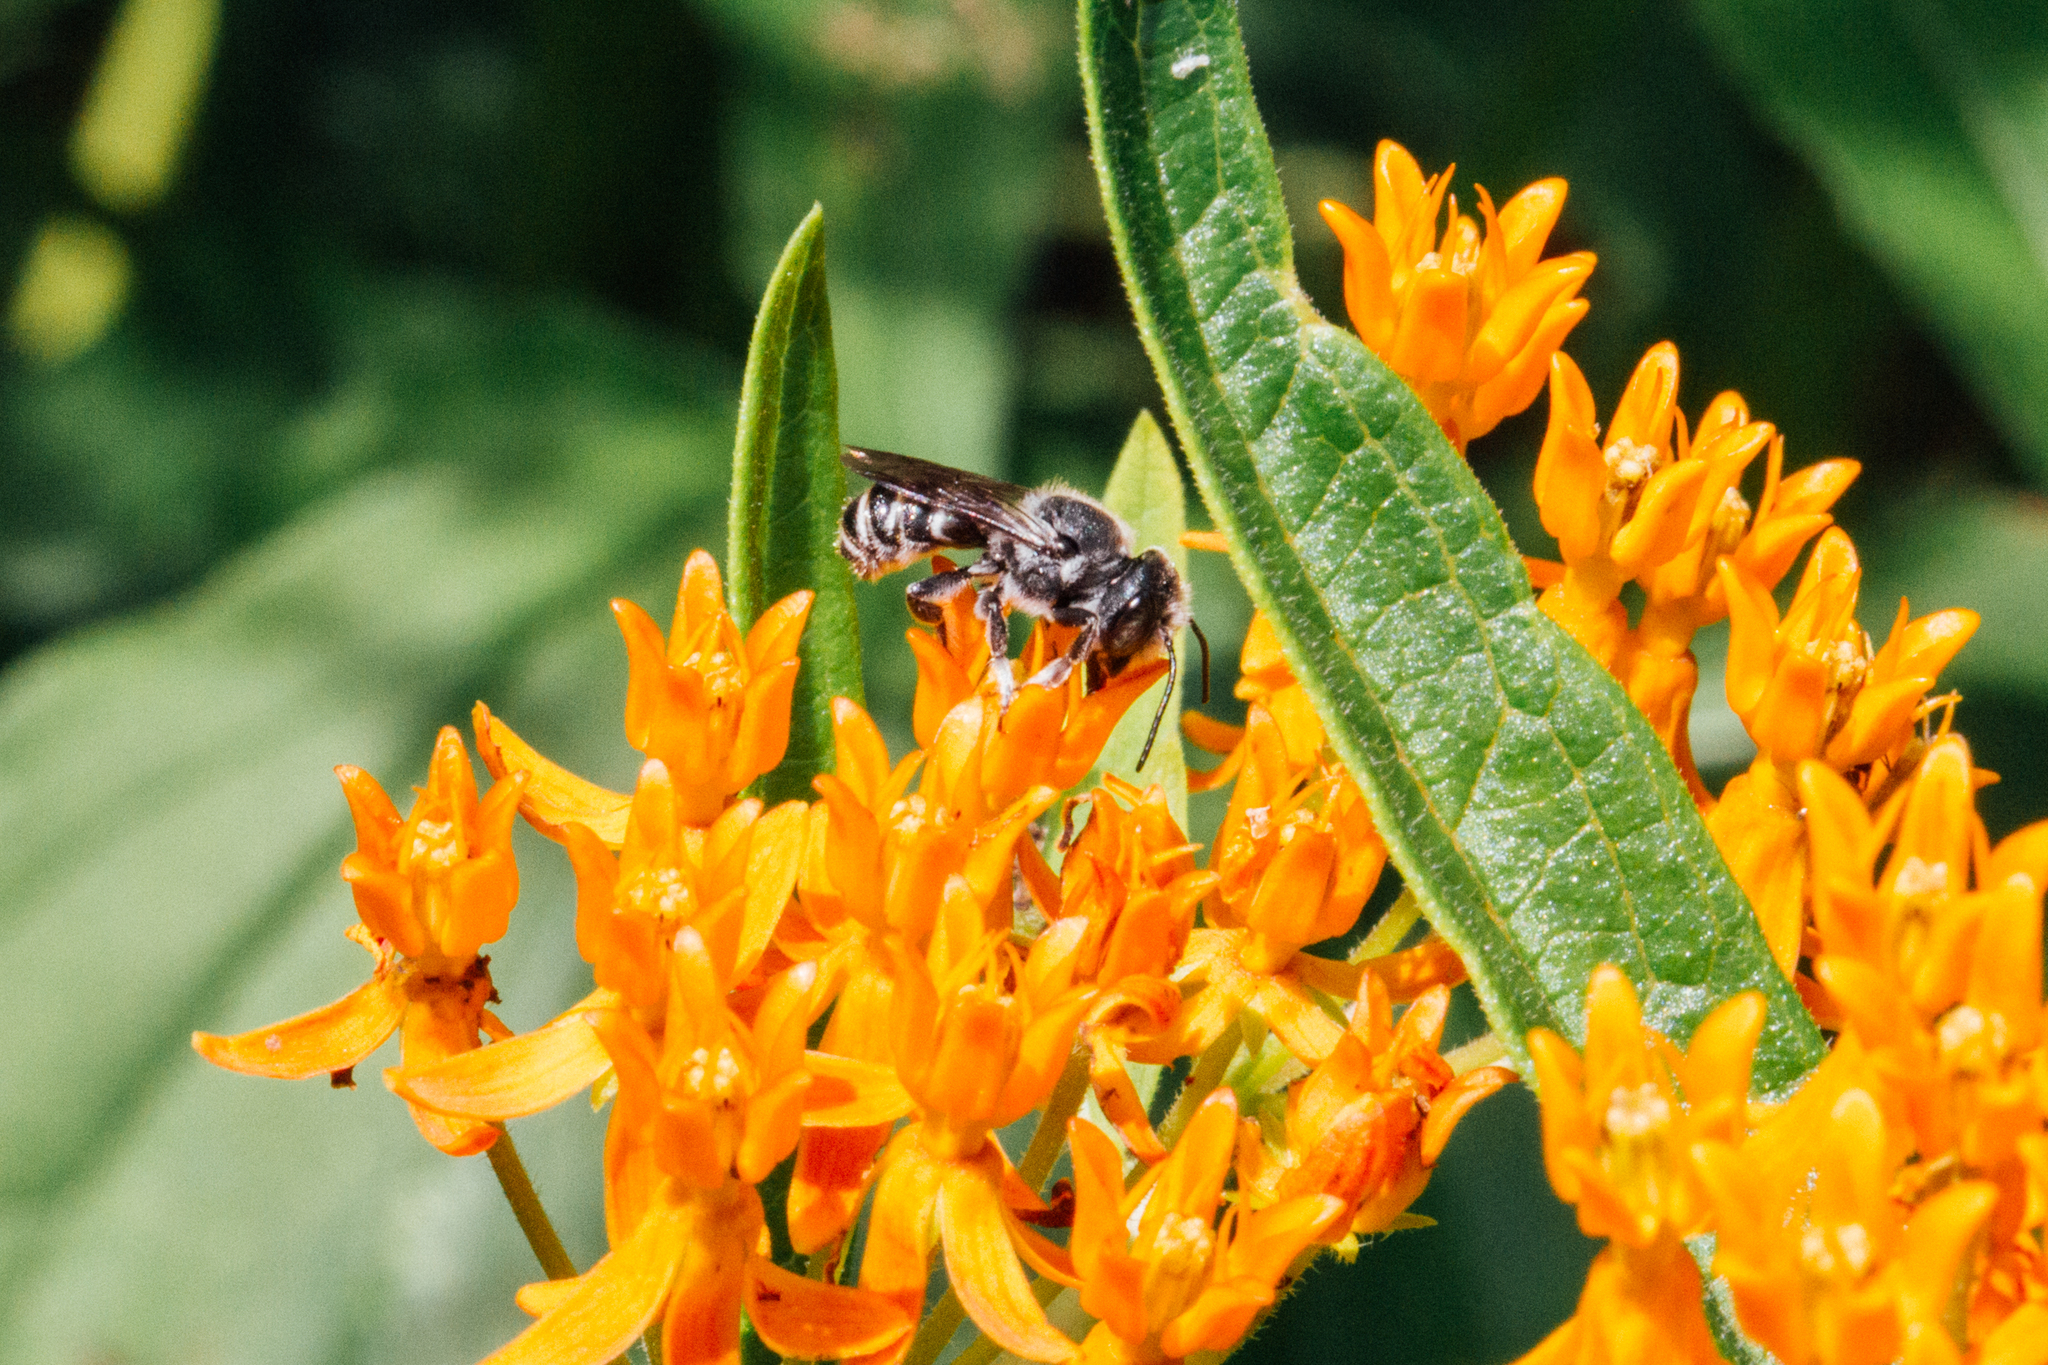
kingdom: Animalia
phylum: Arthropoda
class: Insecta
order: Hymenoptera
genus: Chelostomoides
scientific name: Chelostomoides
